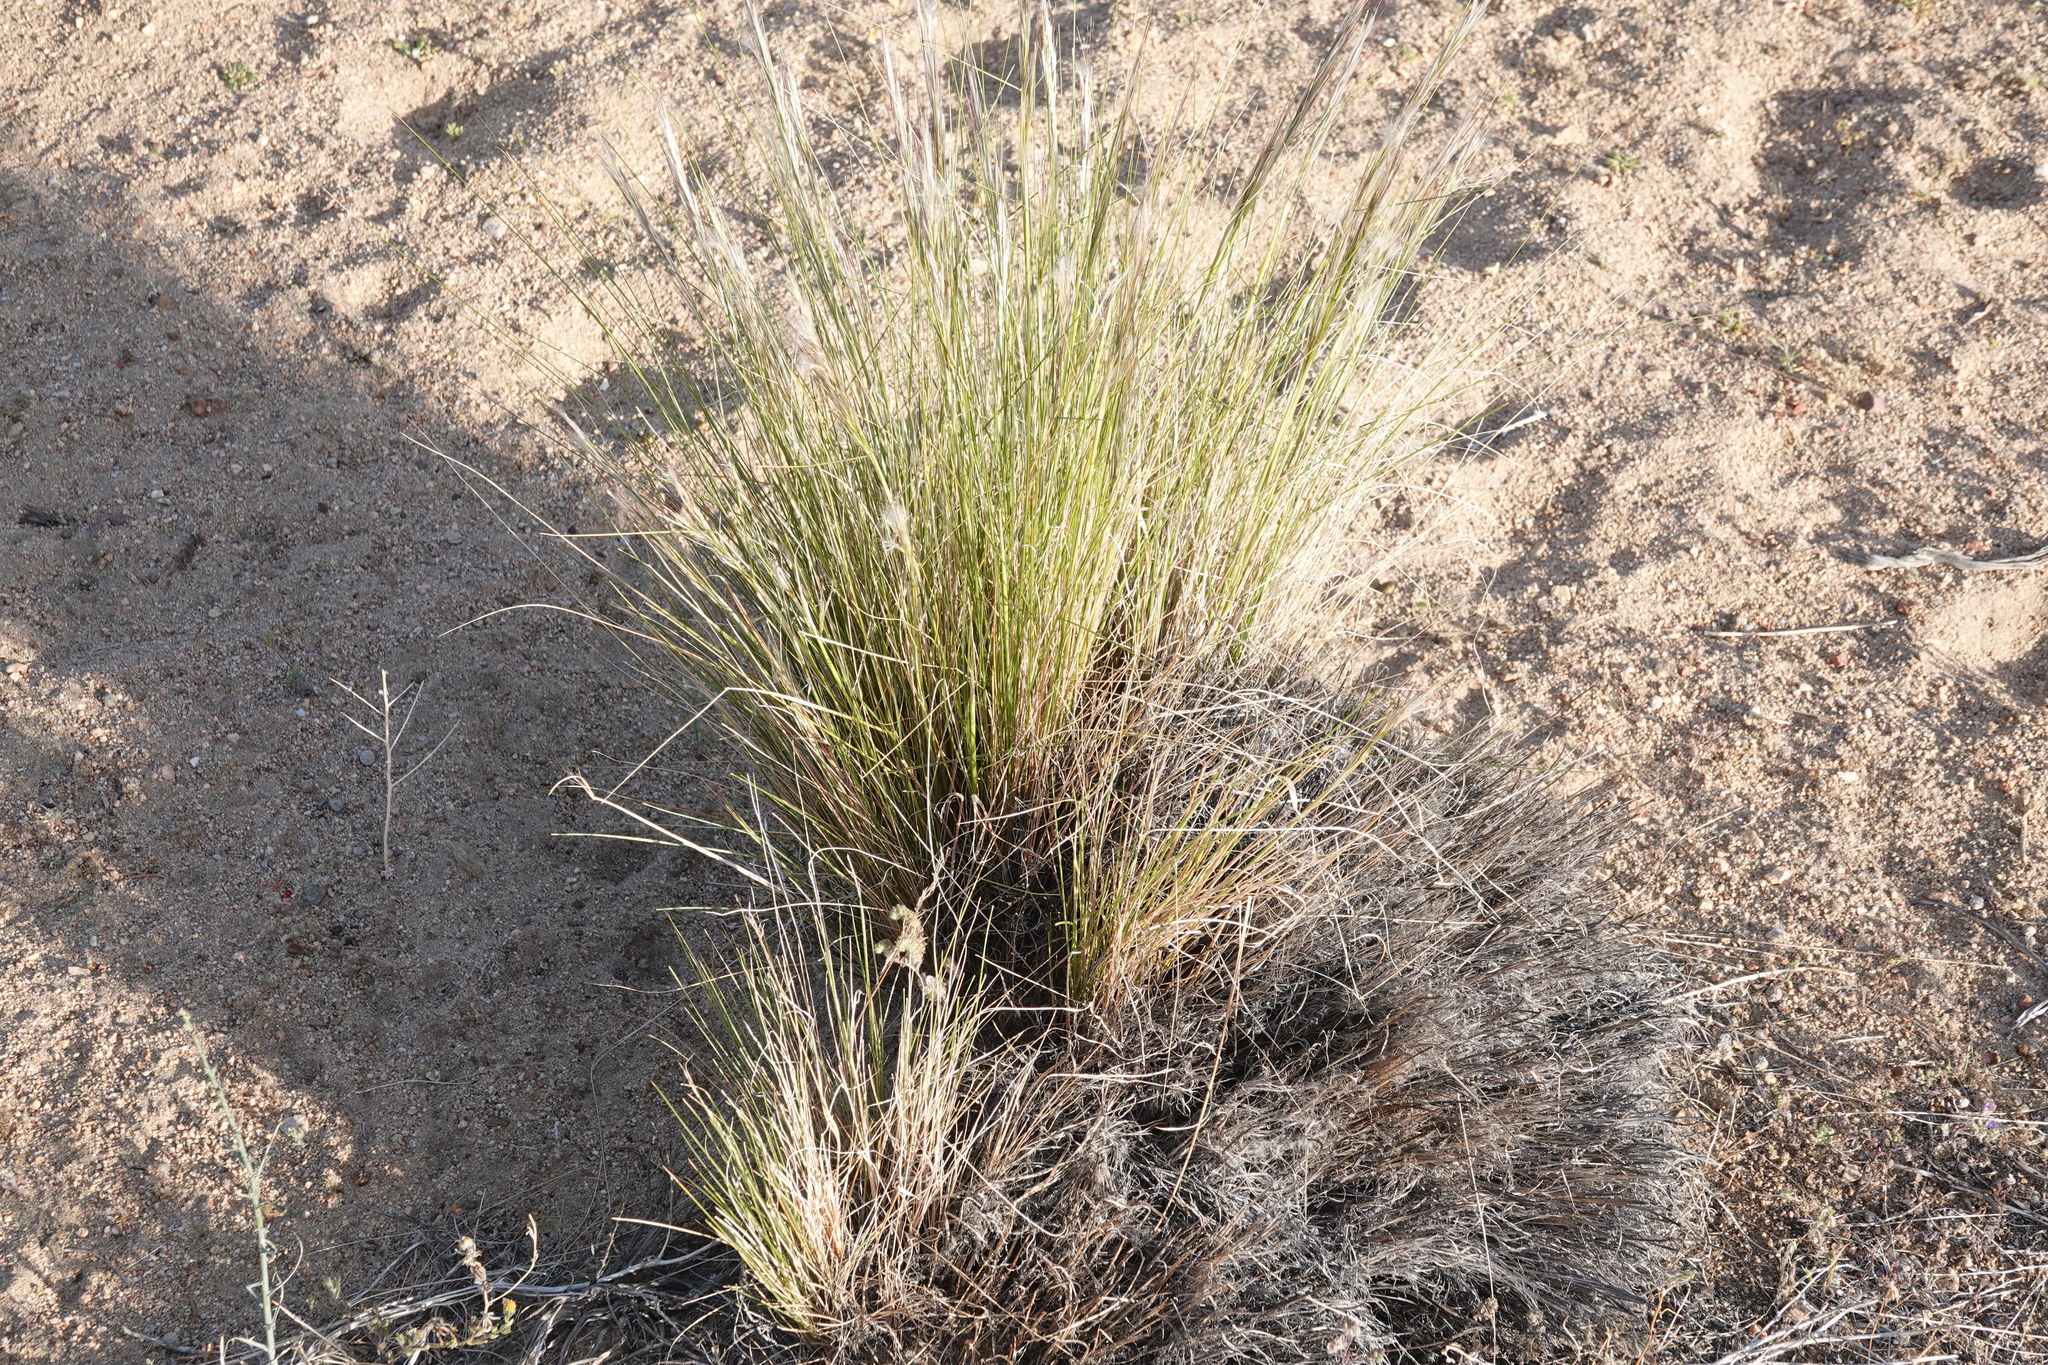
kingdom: Plantae
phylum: Tracheophyta
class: Liliopsida
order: Poales
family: Poaceae
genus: Pappostipa
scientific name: Pappostipa speciosa
